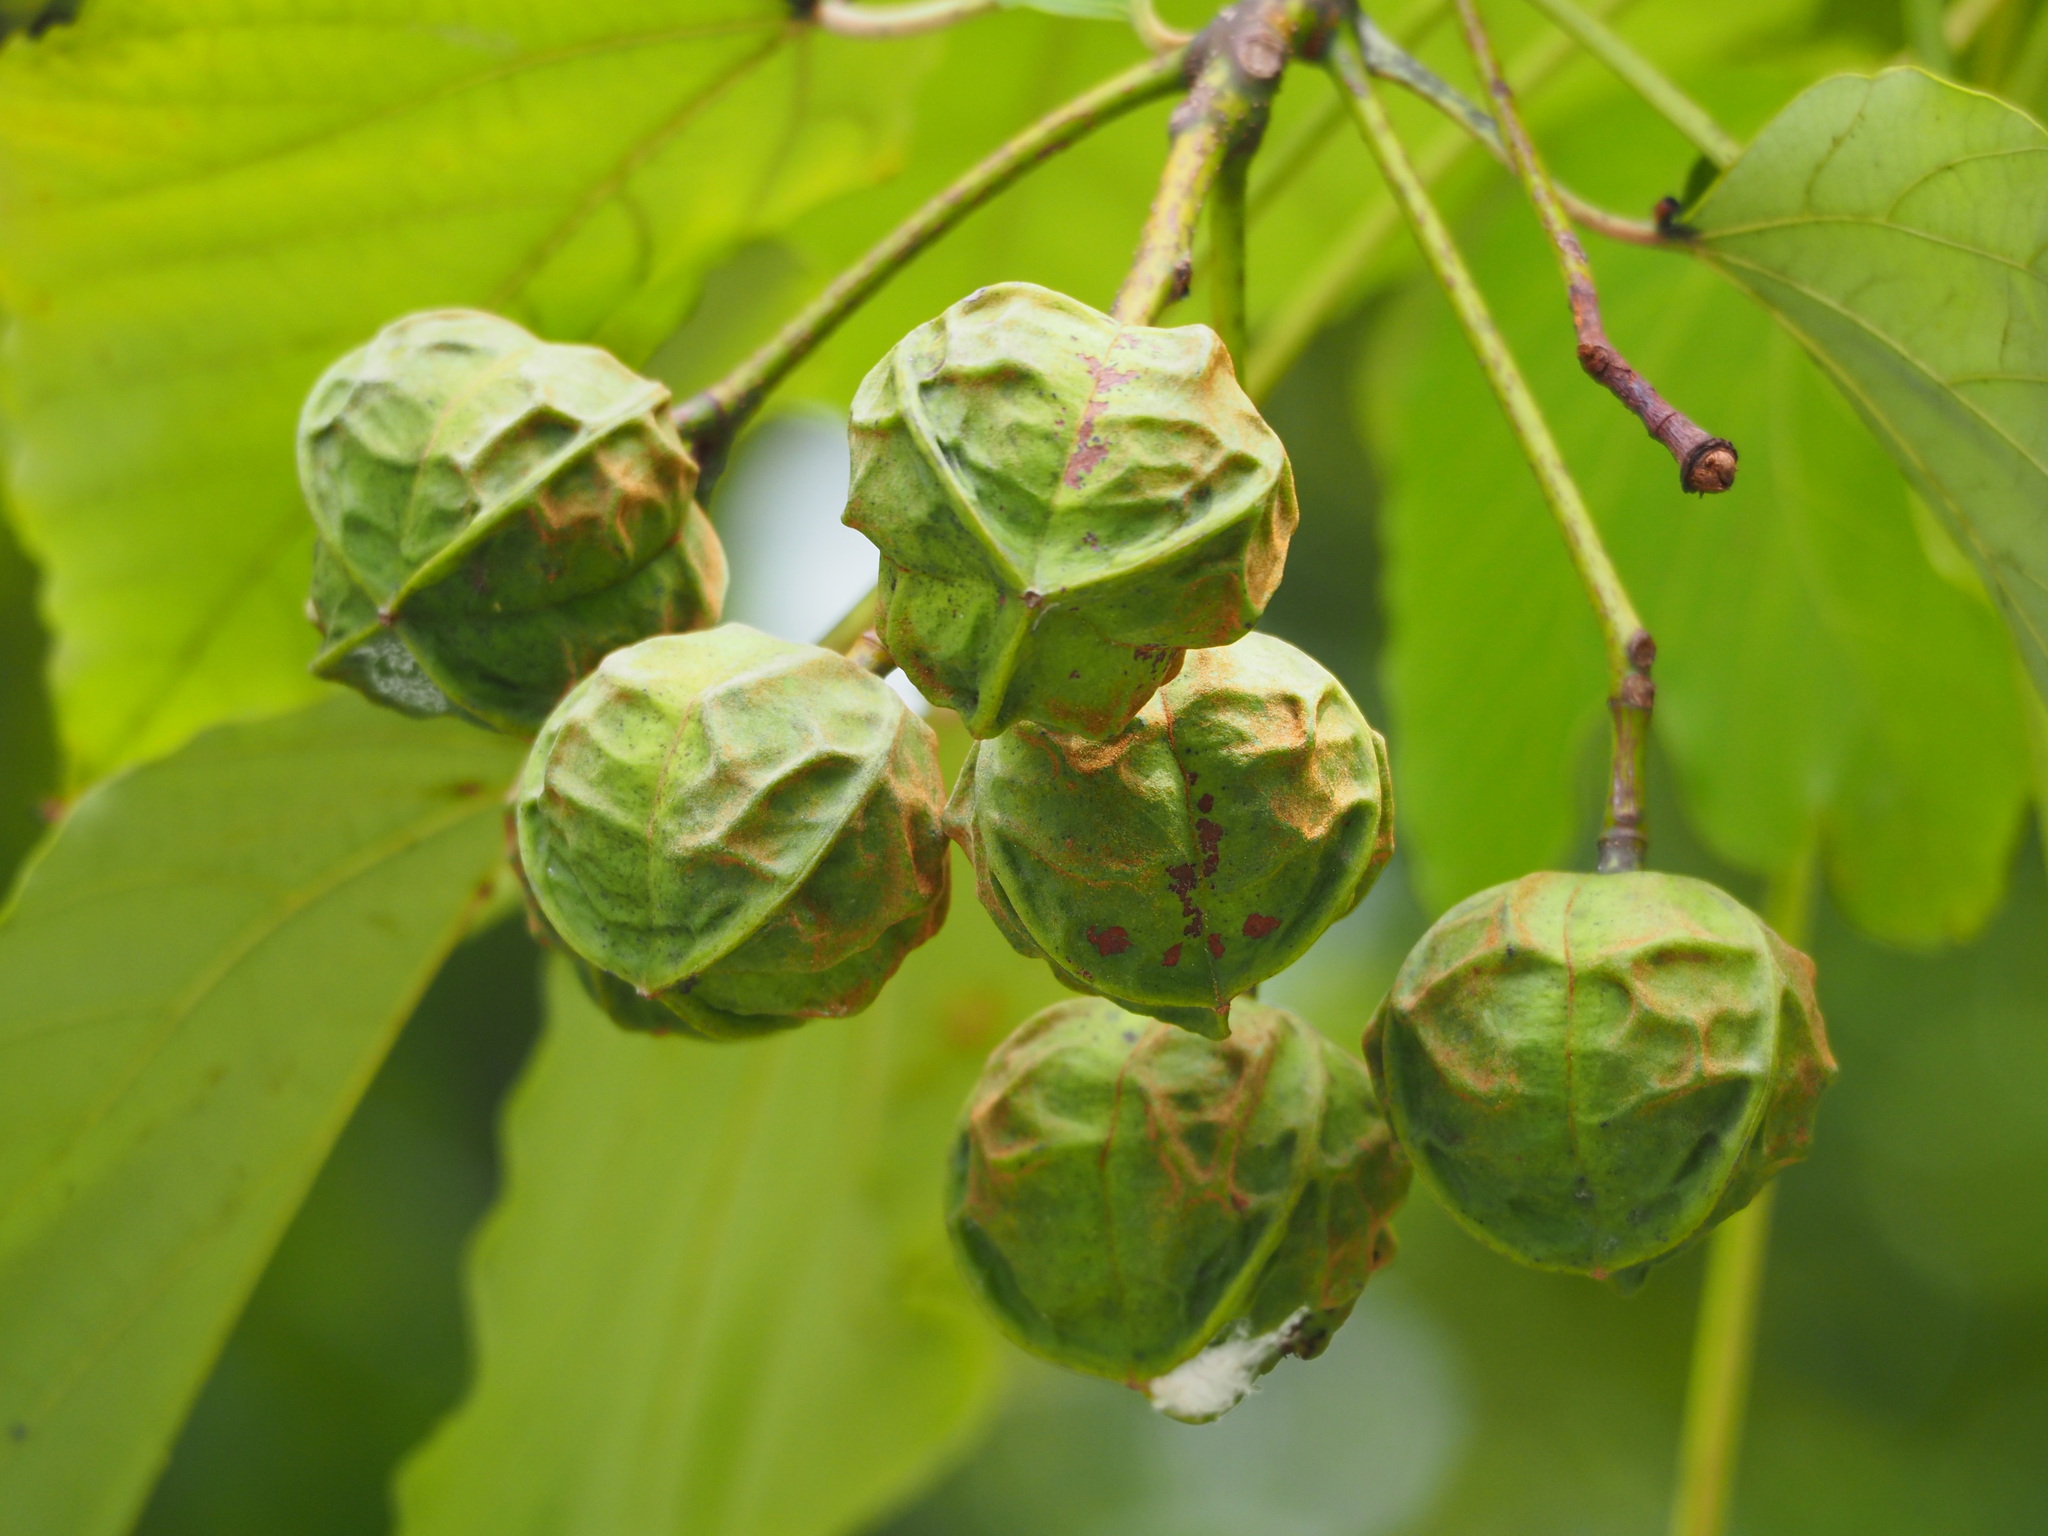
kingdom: Plantae
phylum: Tracheophyta
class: Magnoliopsida
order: Malpighiales
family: Euphorbiaceae
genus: Vernicia
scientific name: Vernicia montana
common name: Mu oil tree
